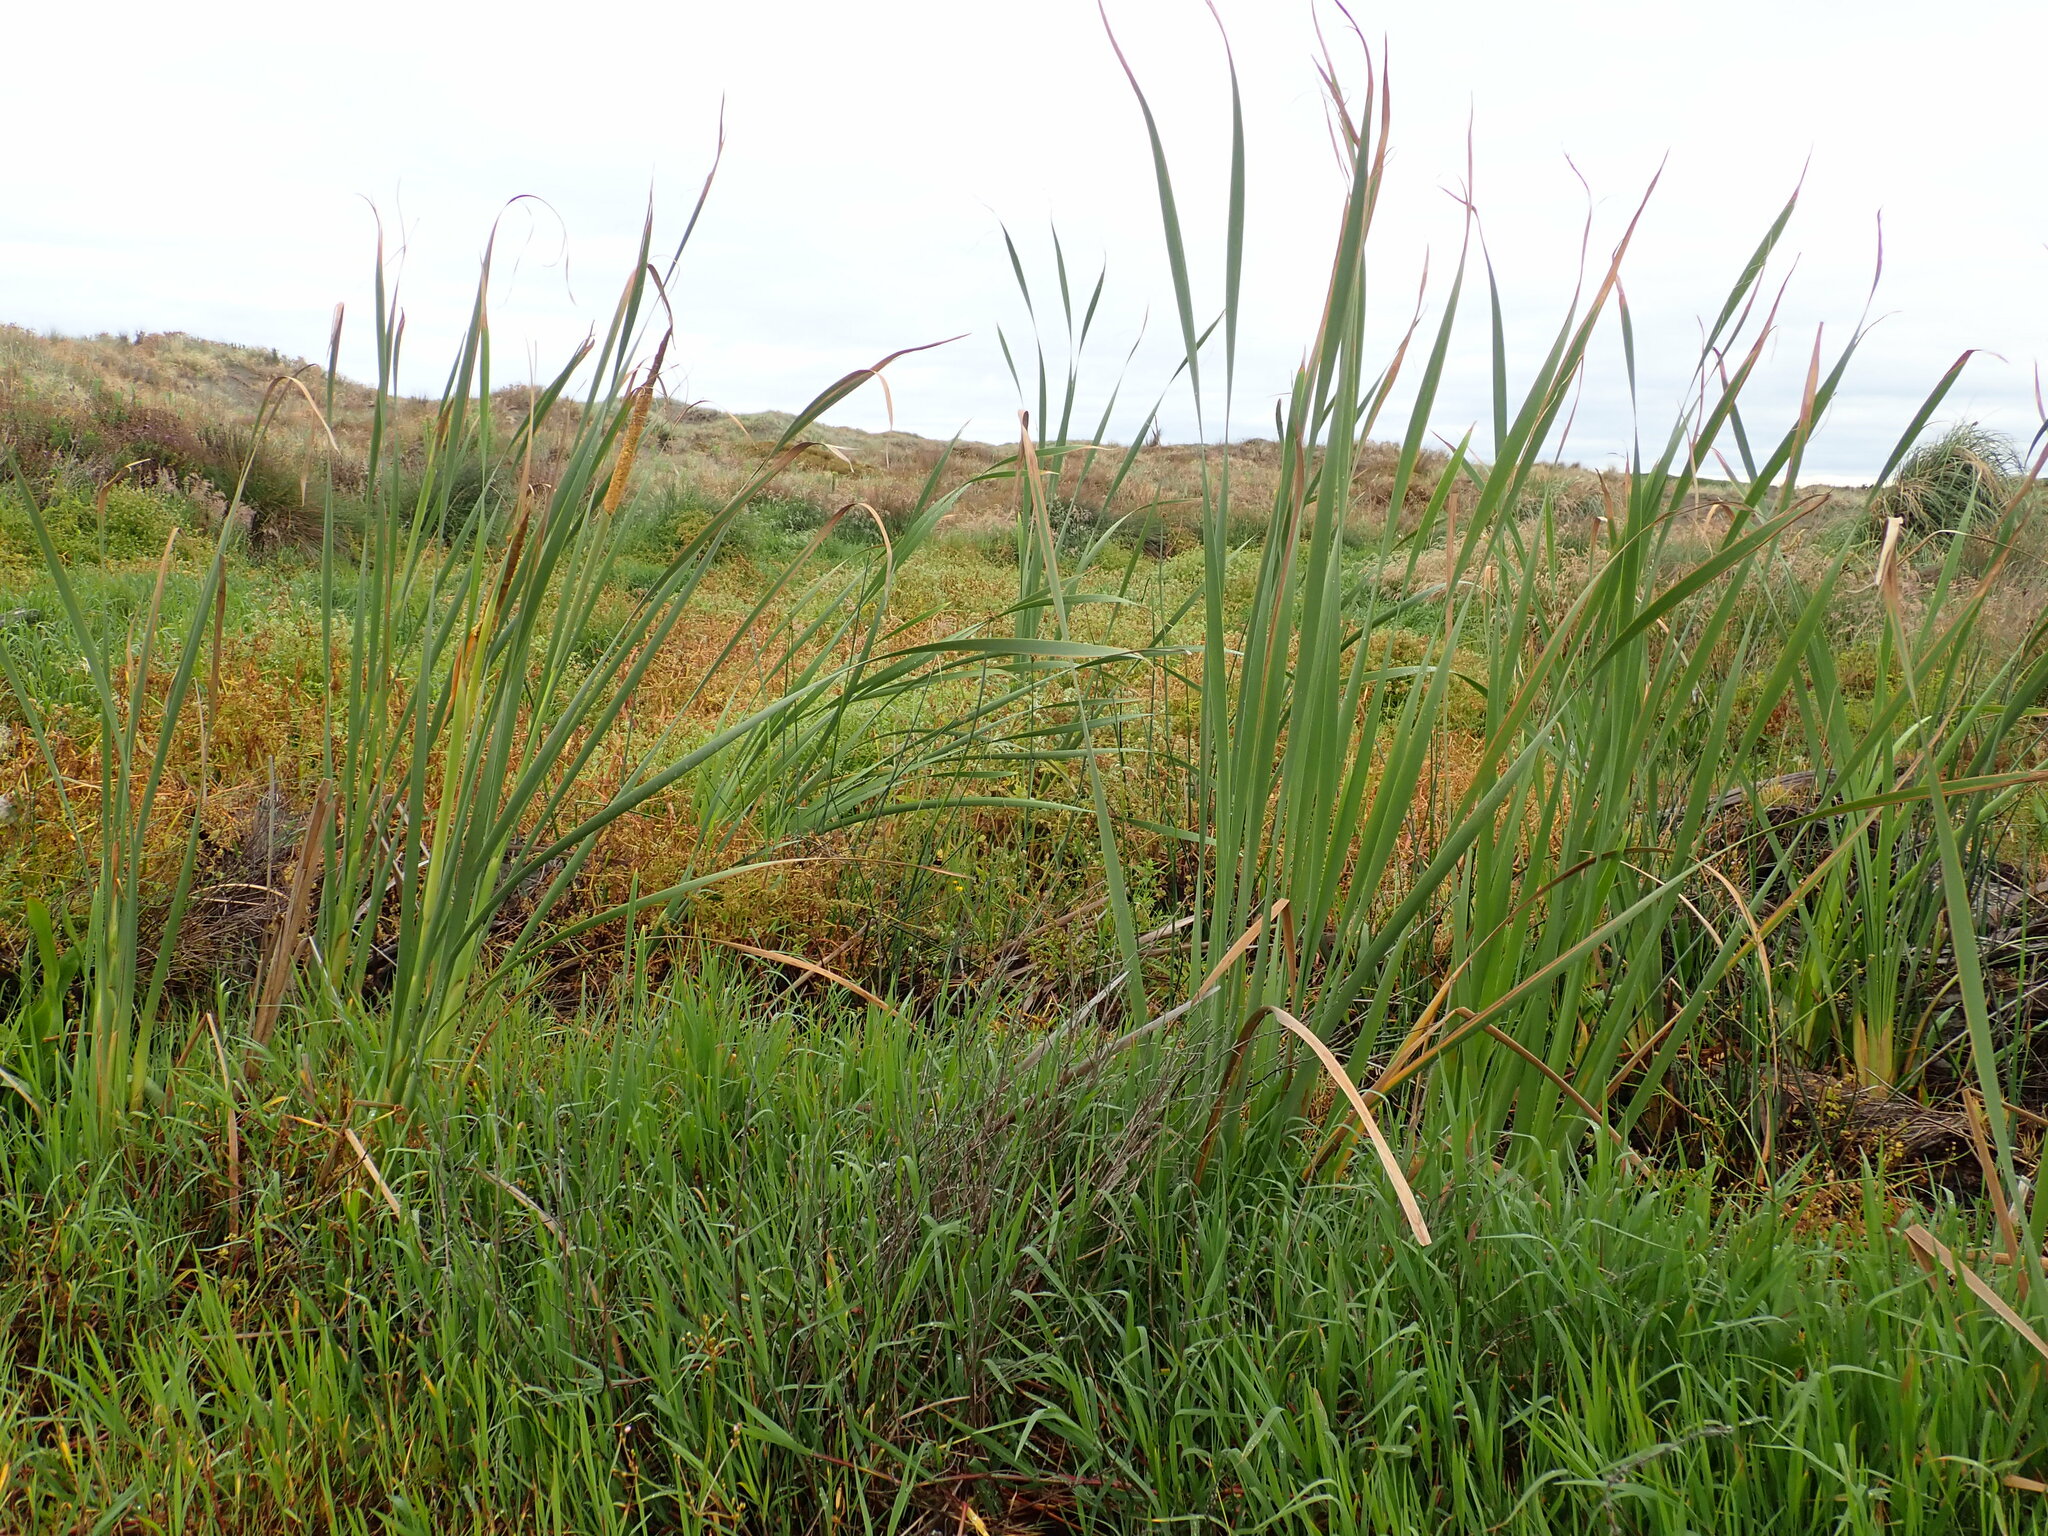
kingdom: Plantae
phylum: Tracheophyta
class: Liliopsida
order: Poales
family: Typhaceae
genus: Typha
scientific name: Typha orientalis
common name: Bullrush
